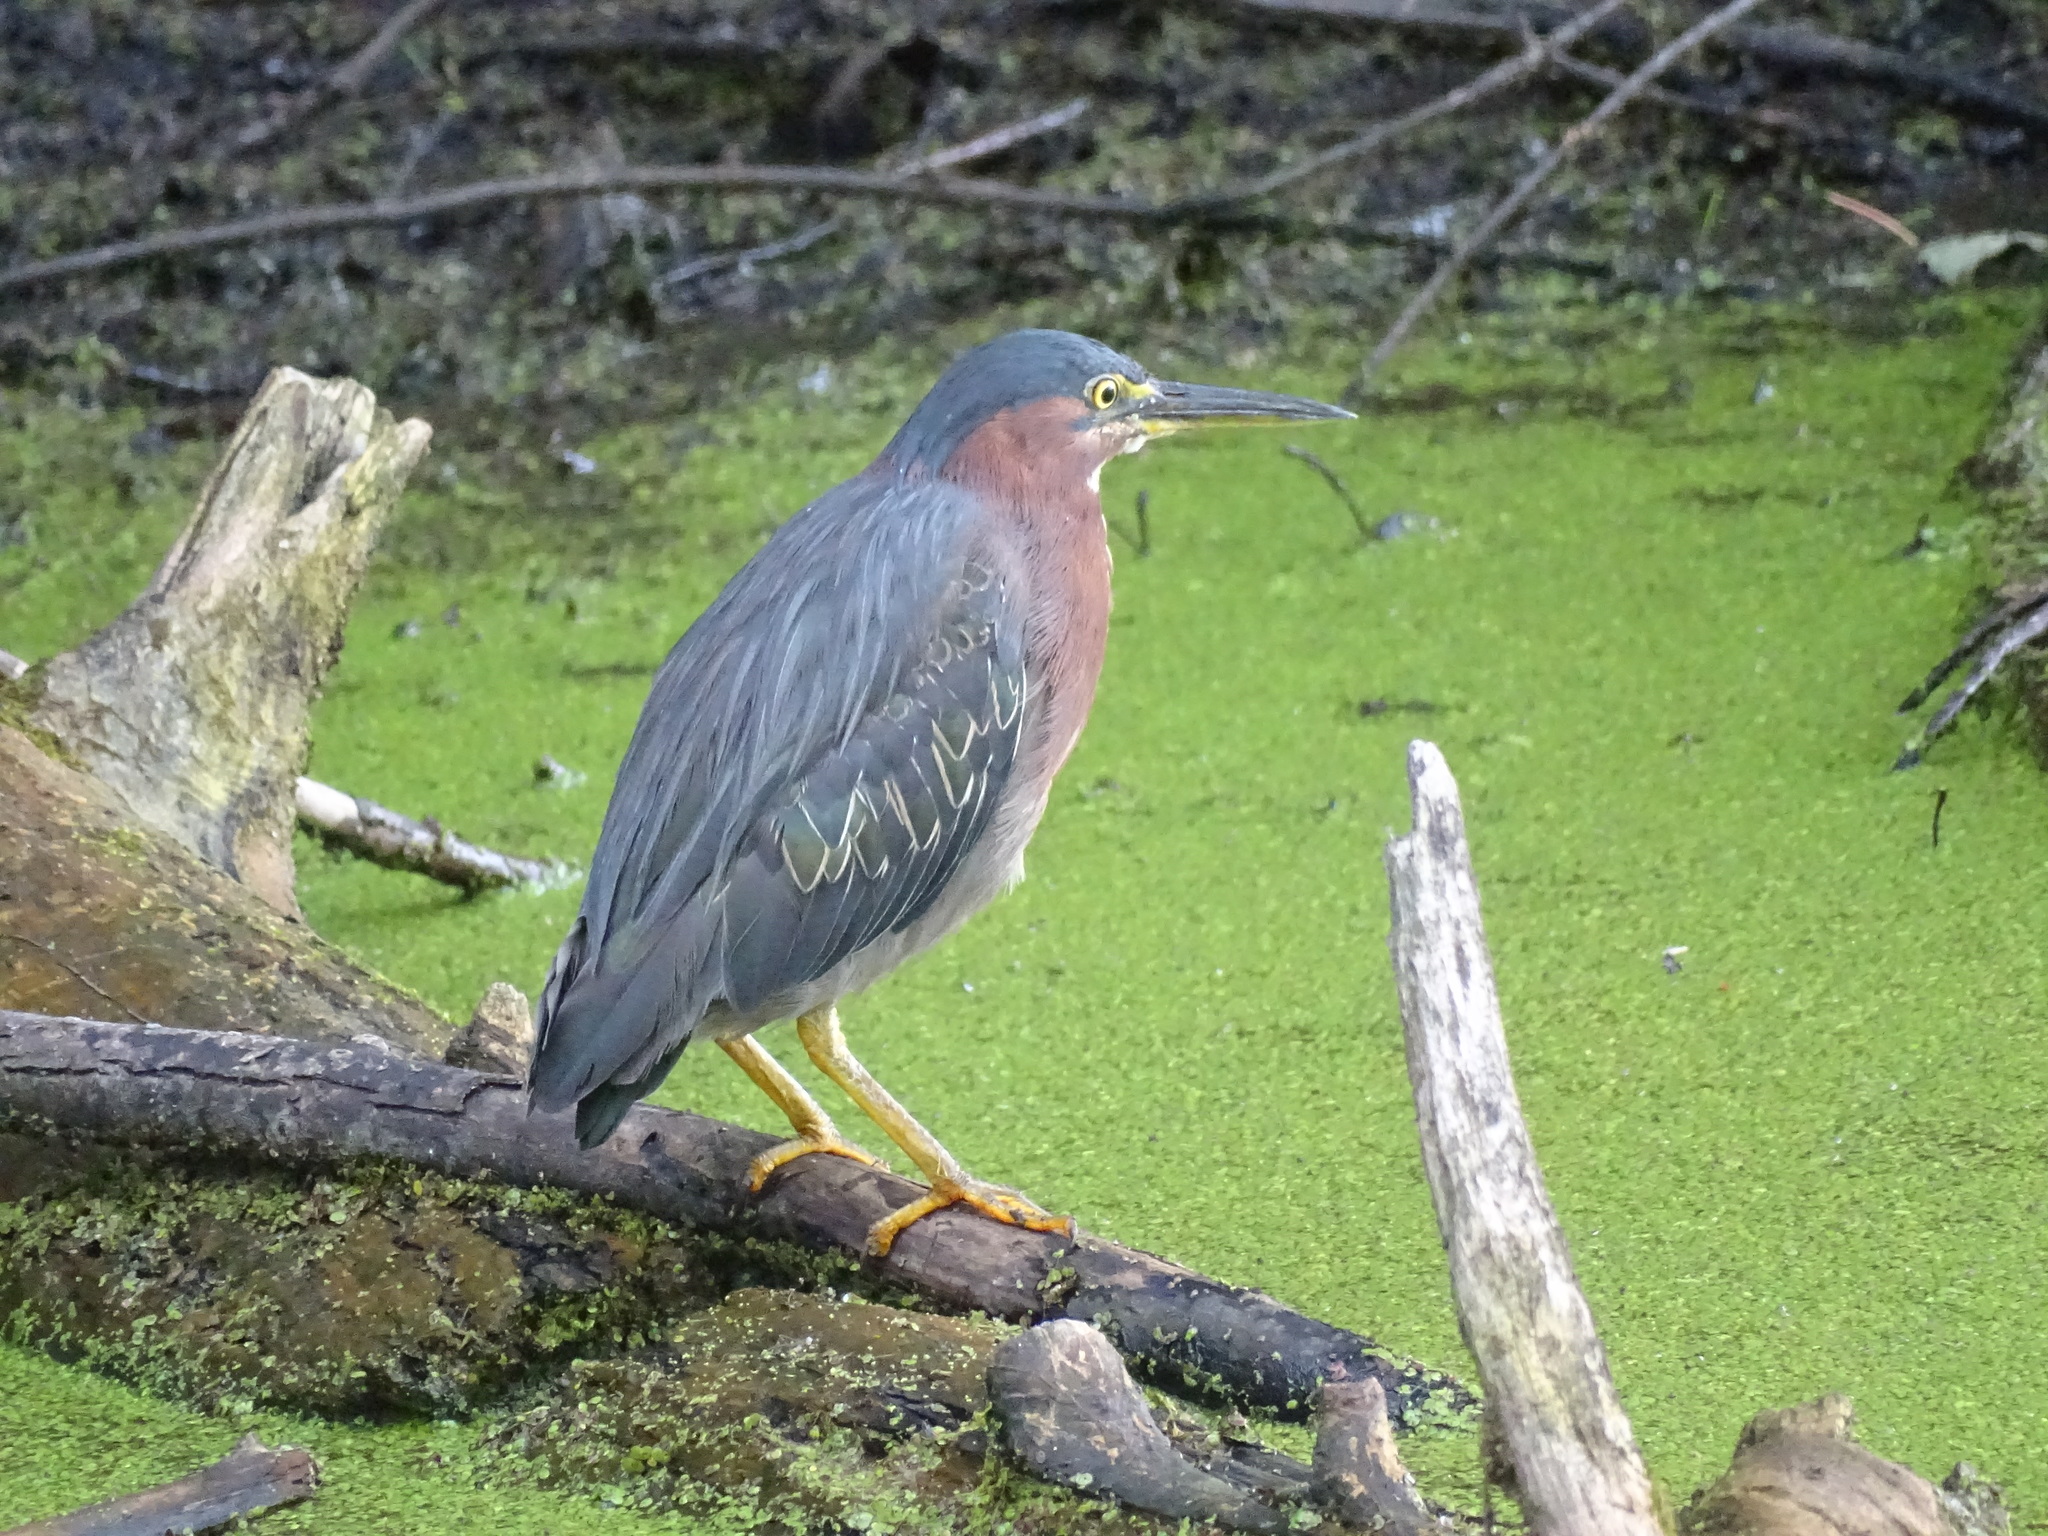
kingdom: Animalia
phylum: Chordata
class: Aves
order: Pelecaniformes
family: Ardeidae
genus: Butorides
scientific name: Butorides virescens
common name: Green heron
